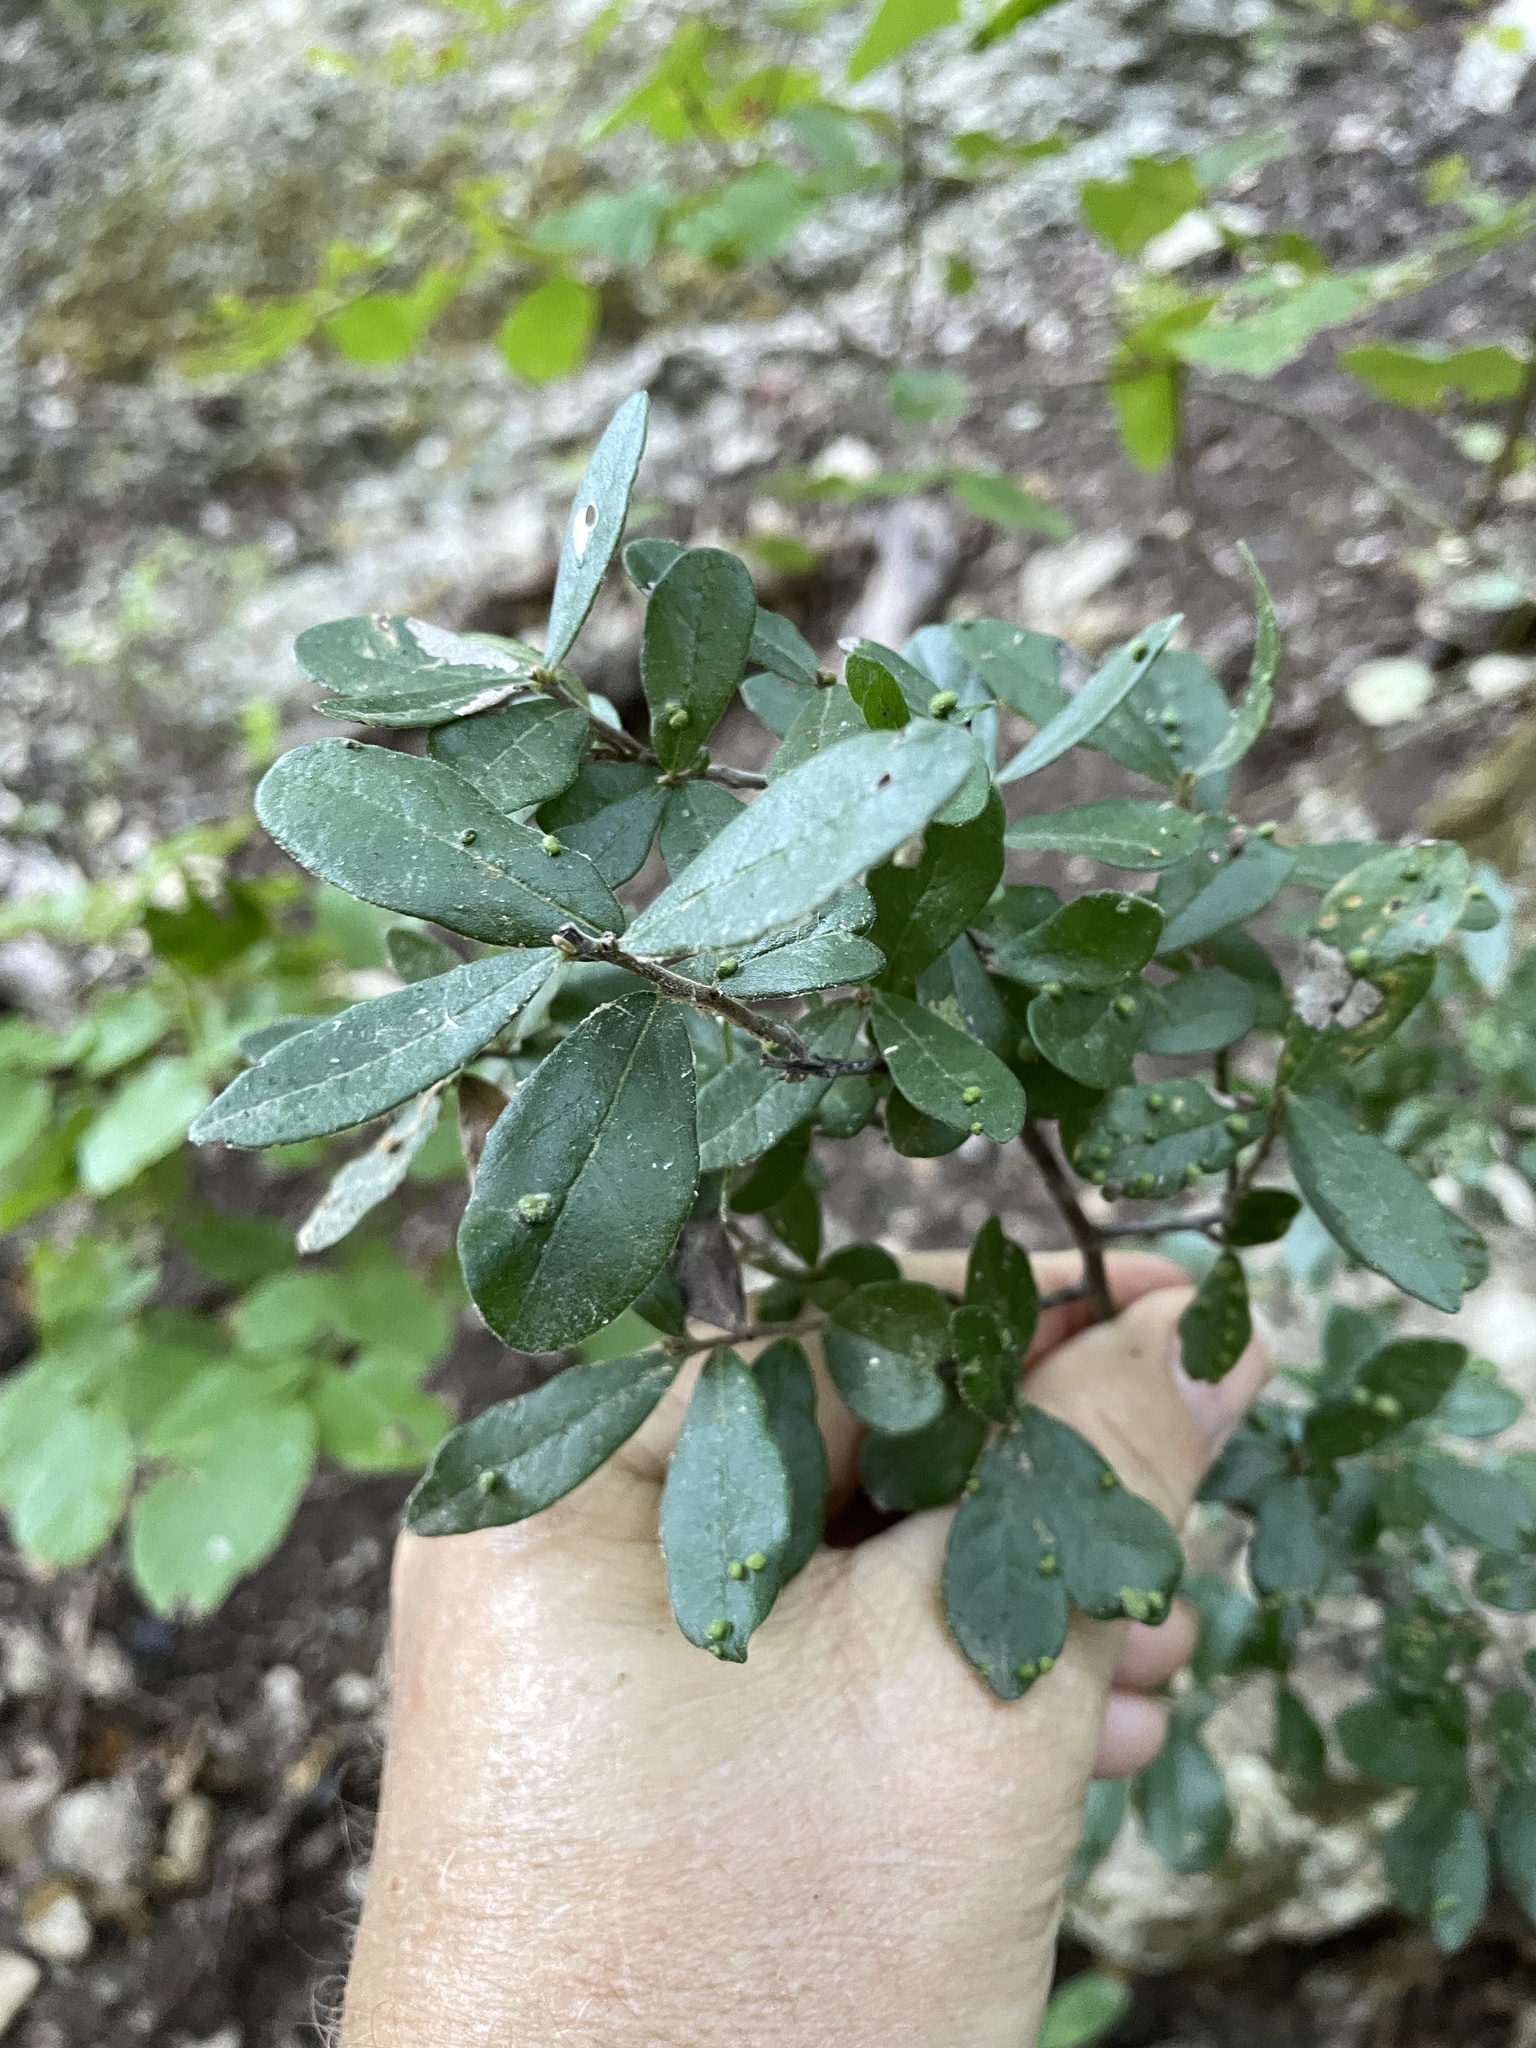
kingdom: Plantae
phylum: Tracheophyta
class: Magnoliopsida
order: Ericales
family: Ebenaceae
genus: Diospyros
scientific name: Diospyros texana
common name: Texas persimmon
